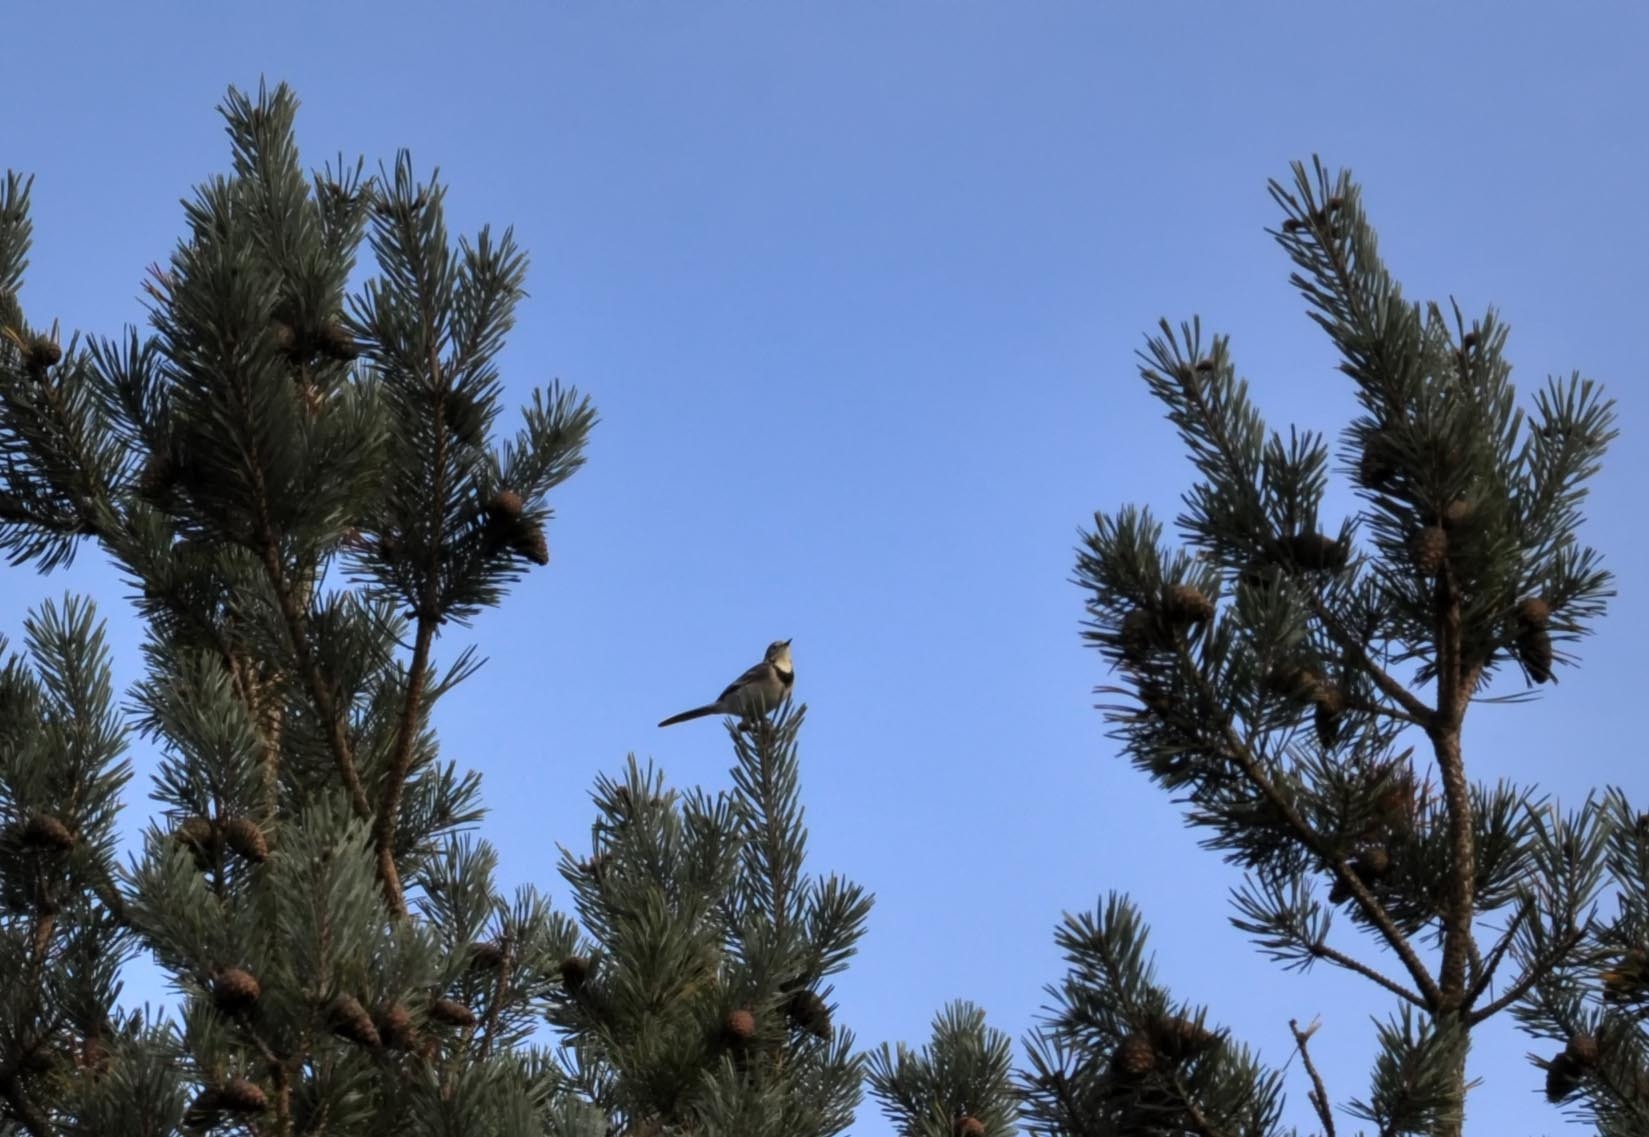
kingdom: Animalia
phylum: Chordata
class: Aves
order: Passeriformes
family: Motacillidae
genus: Motacilla
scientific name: Motacilla alba
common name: White wagtail
